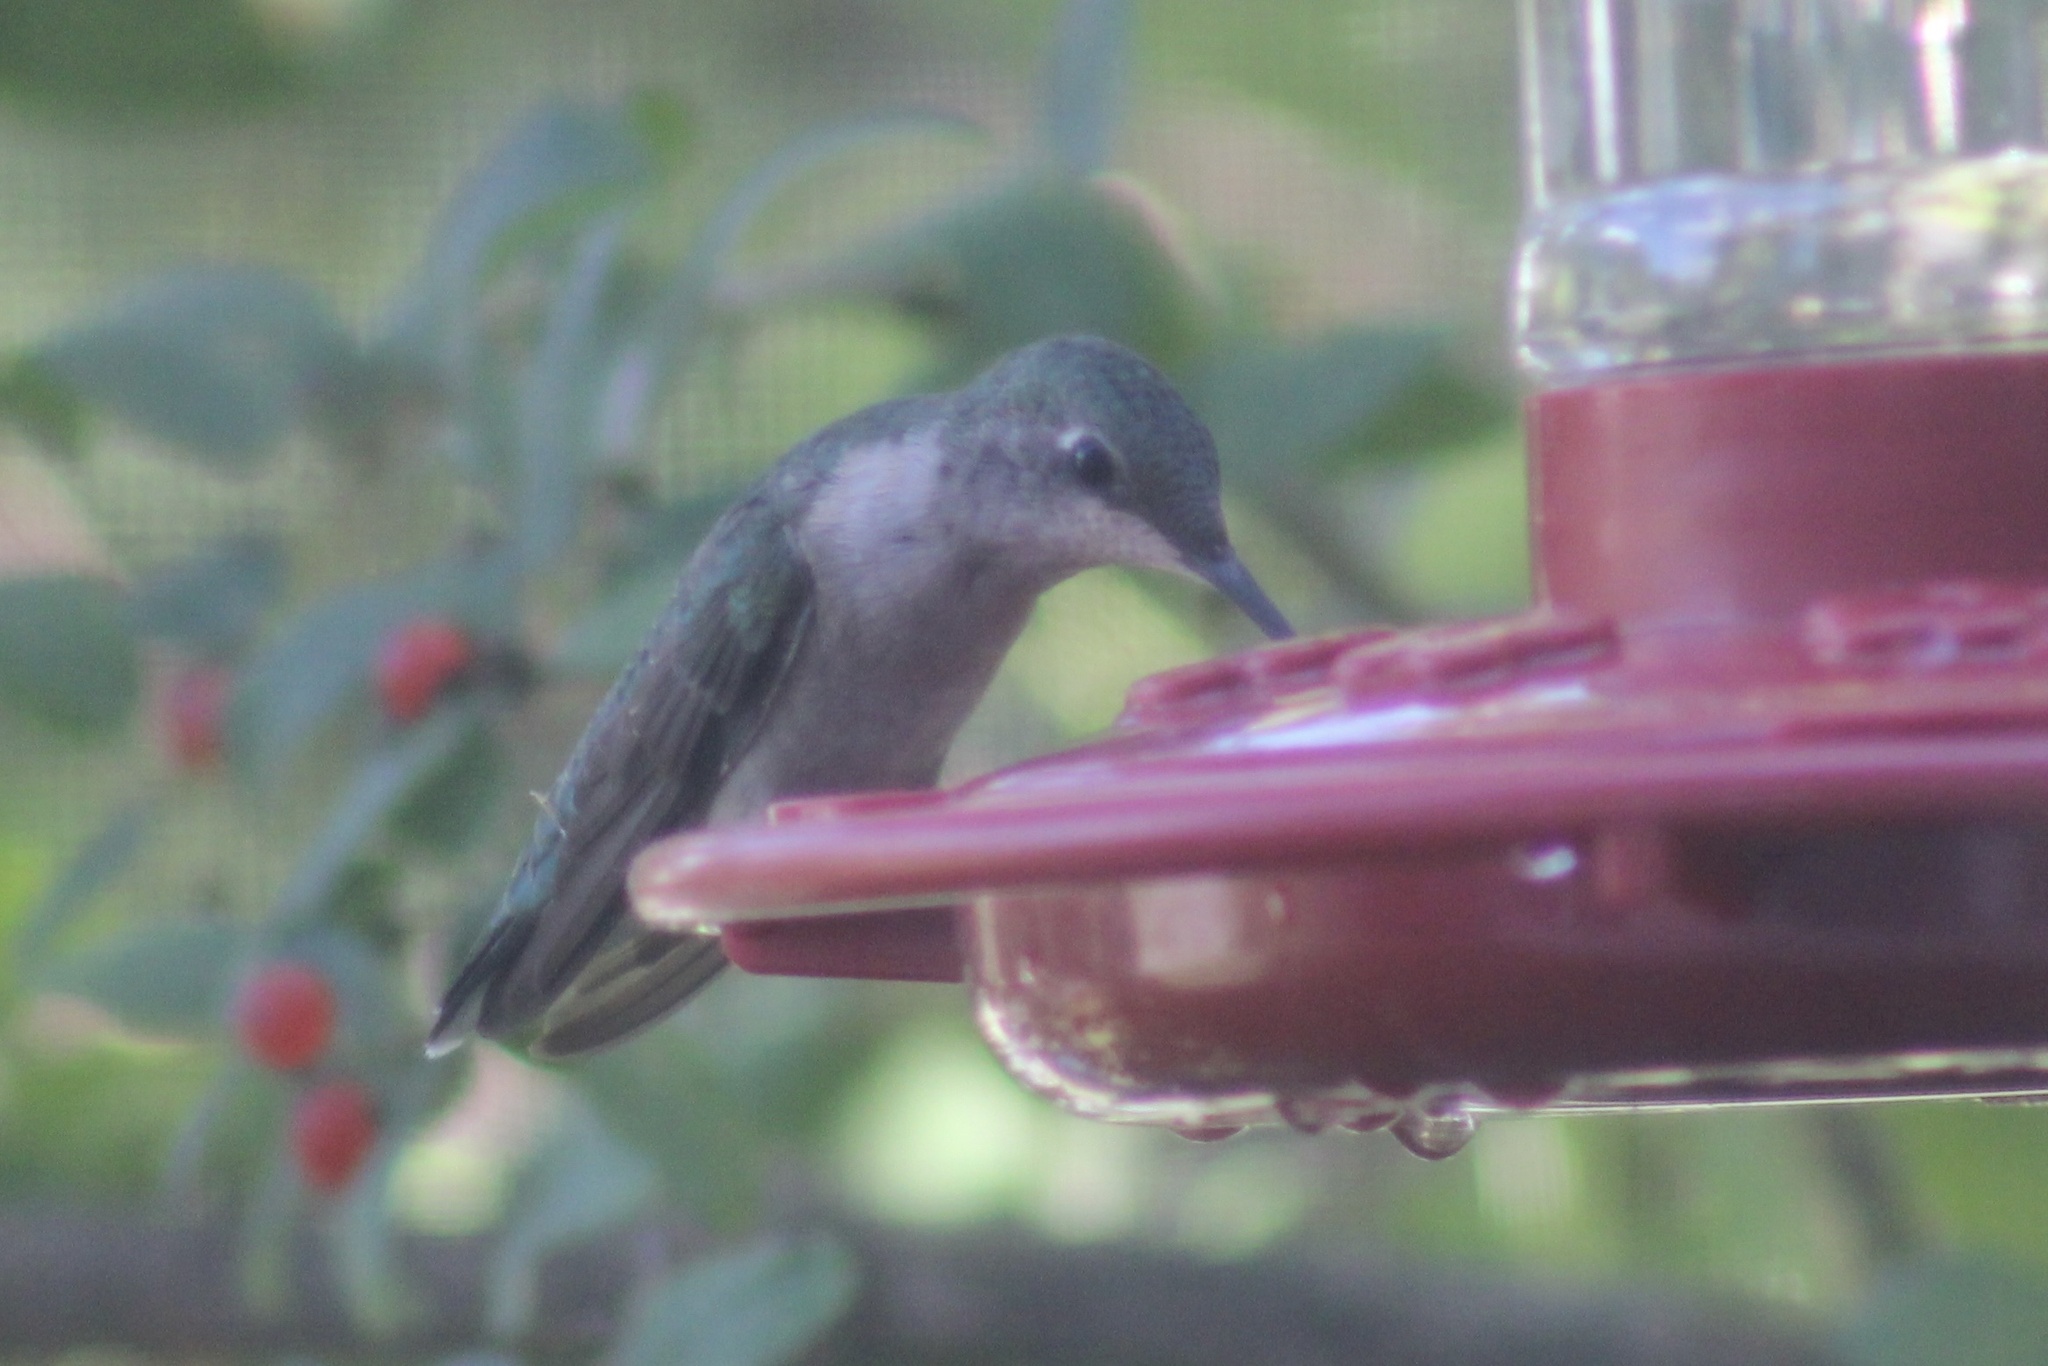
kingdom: Animalia
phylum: Chordata
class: Aves
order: Apodiformes
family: Trochilidae
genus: Archilochus
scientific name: Archilochus colubris
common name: Ruby-throated hummingbird
